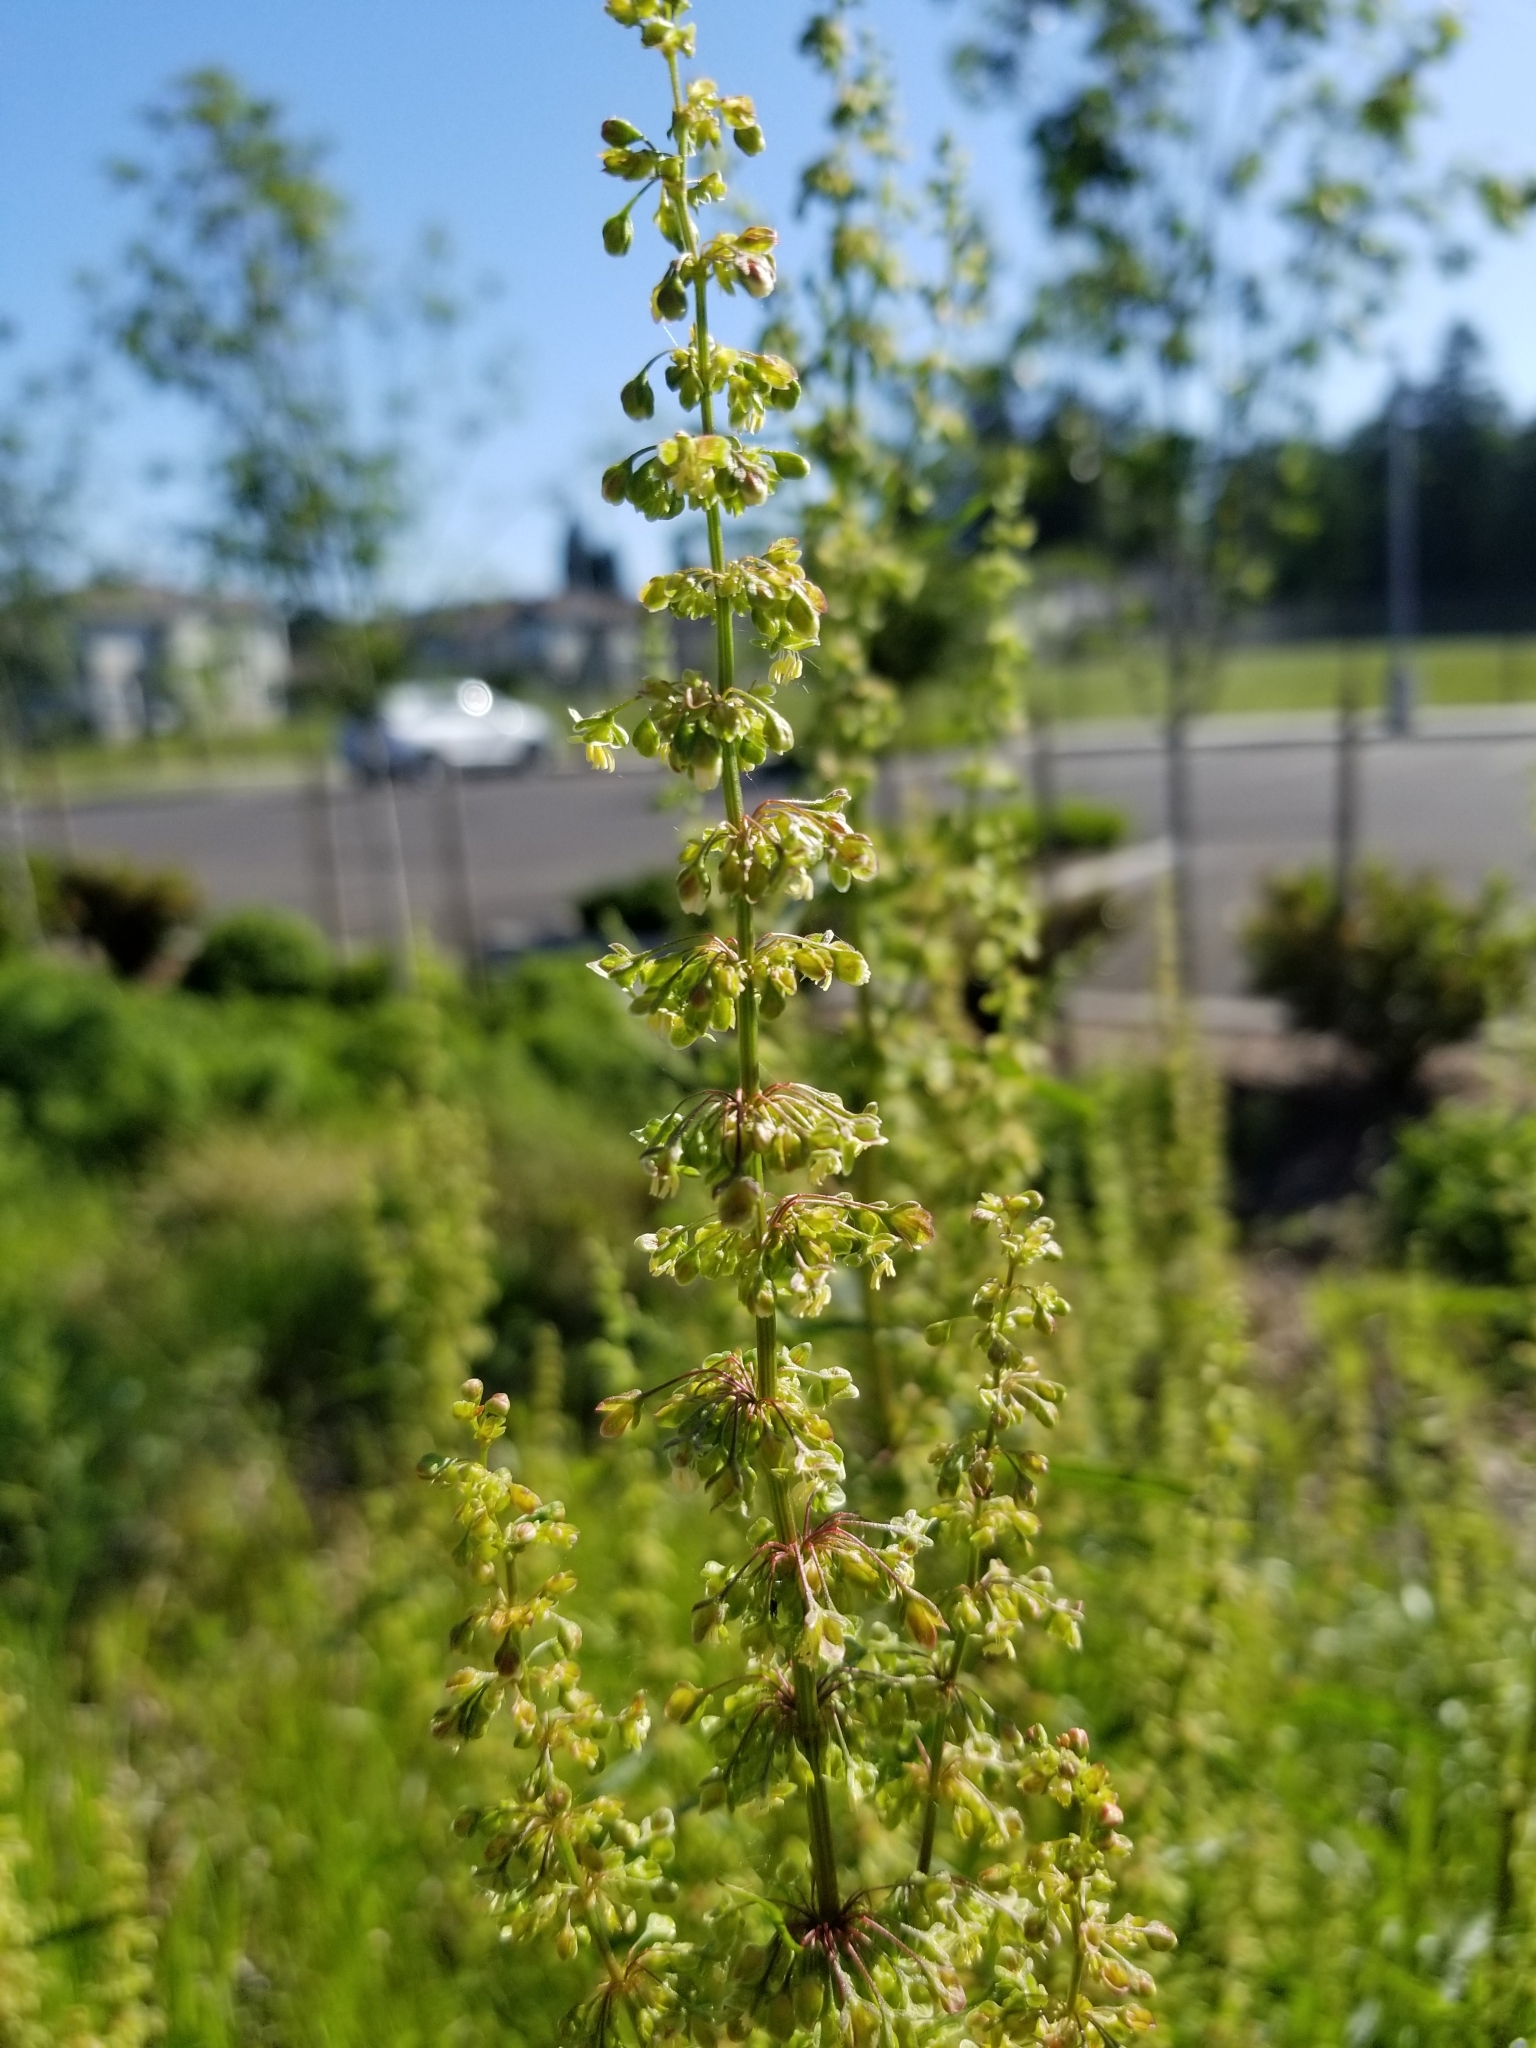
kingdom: Plantae
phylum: Tracheophyta
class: Magnoliopsida
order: Caryophyllales
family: Polygonaceae
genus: Rumex
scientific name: Rumex crispus
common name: Curled dock
